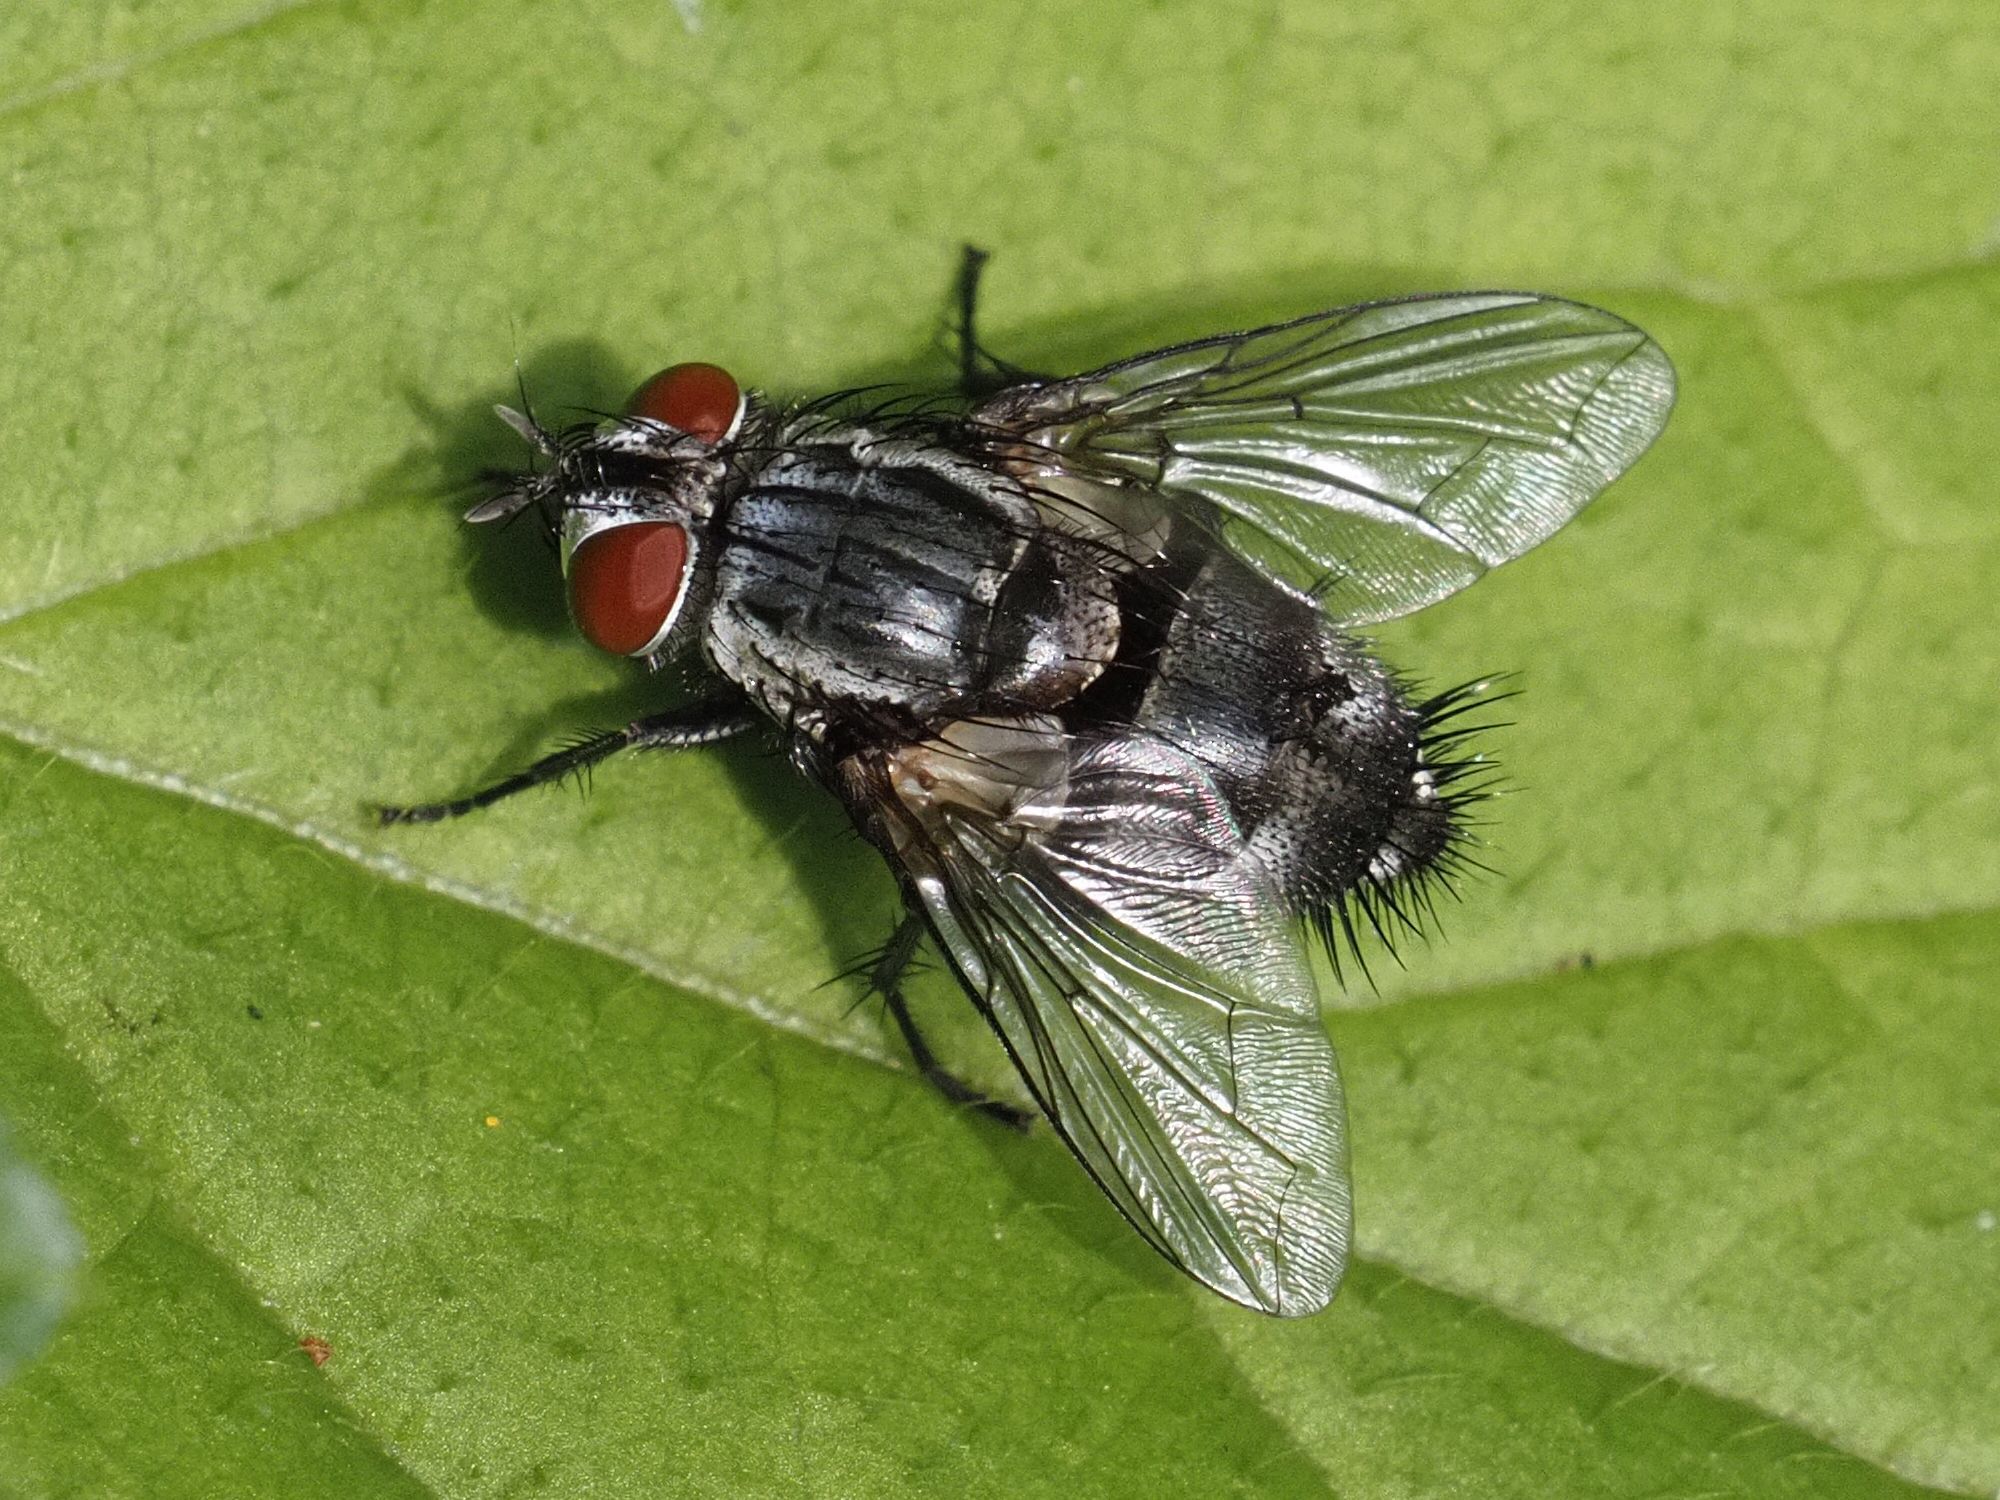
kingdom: Animalia
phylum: Arthropoda
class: Insecta
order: Diptera
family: Tachinidae
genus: Sturmia
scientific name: Sturmia bella
